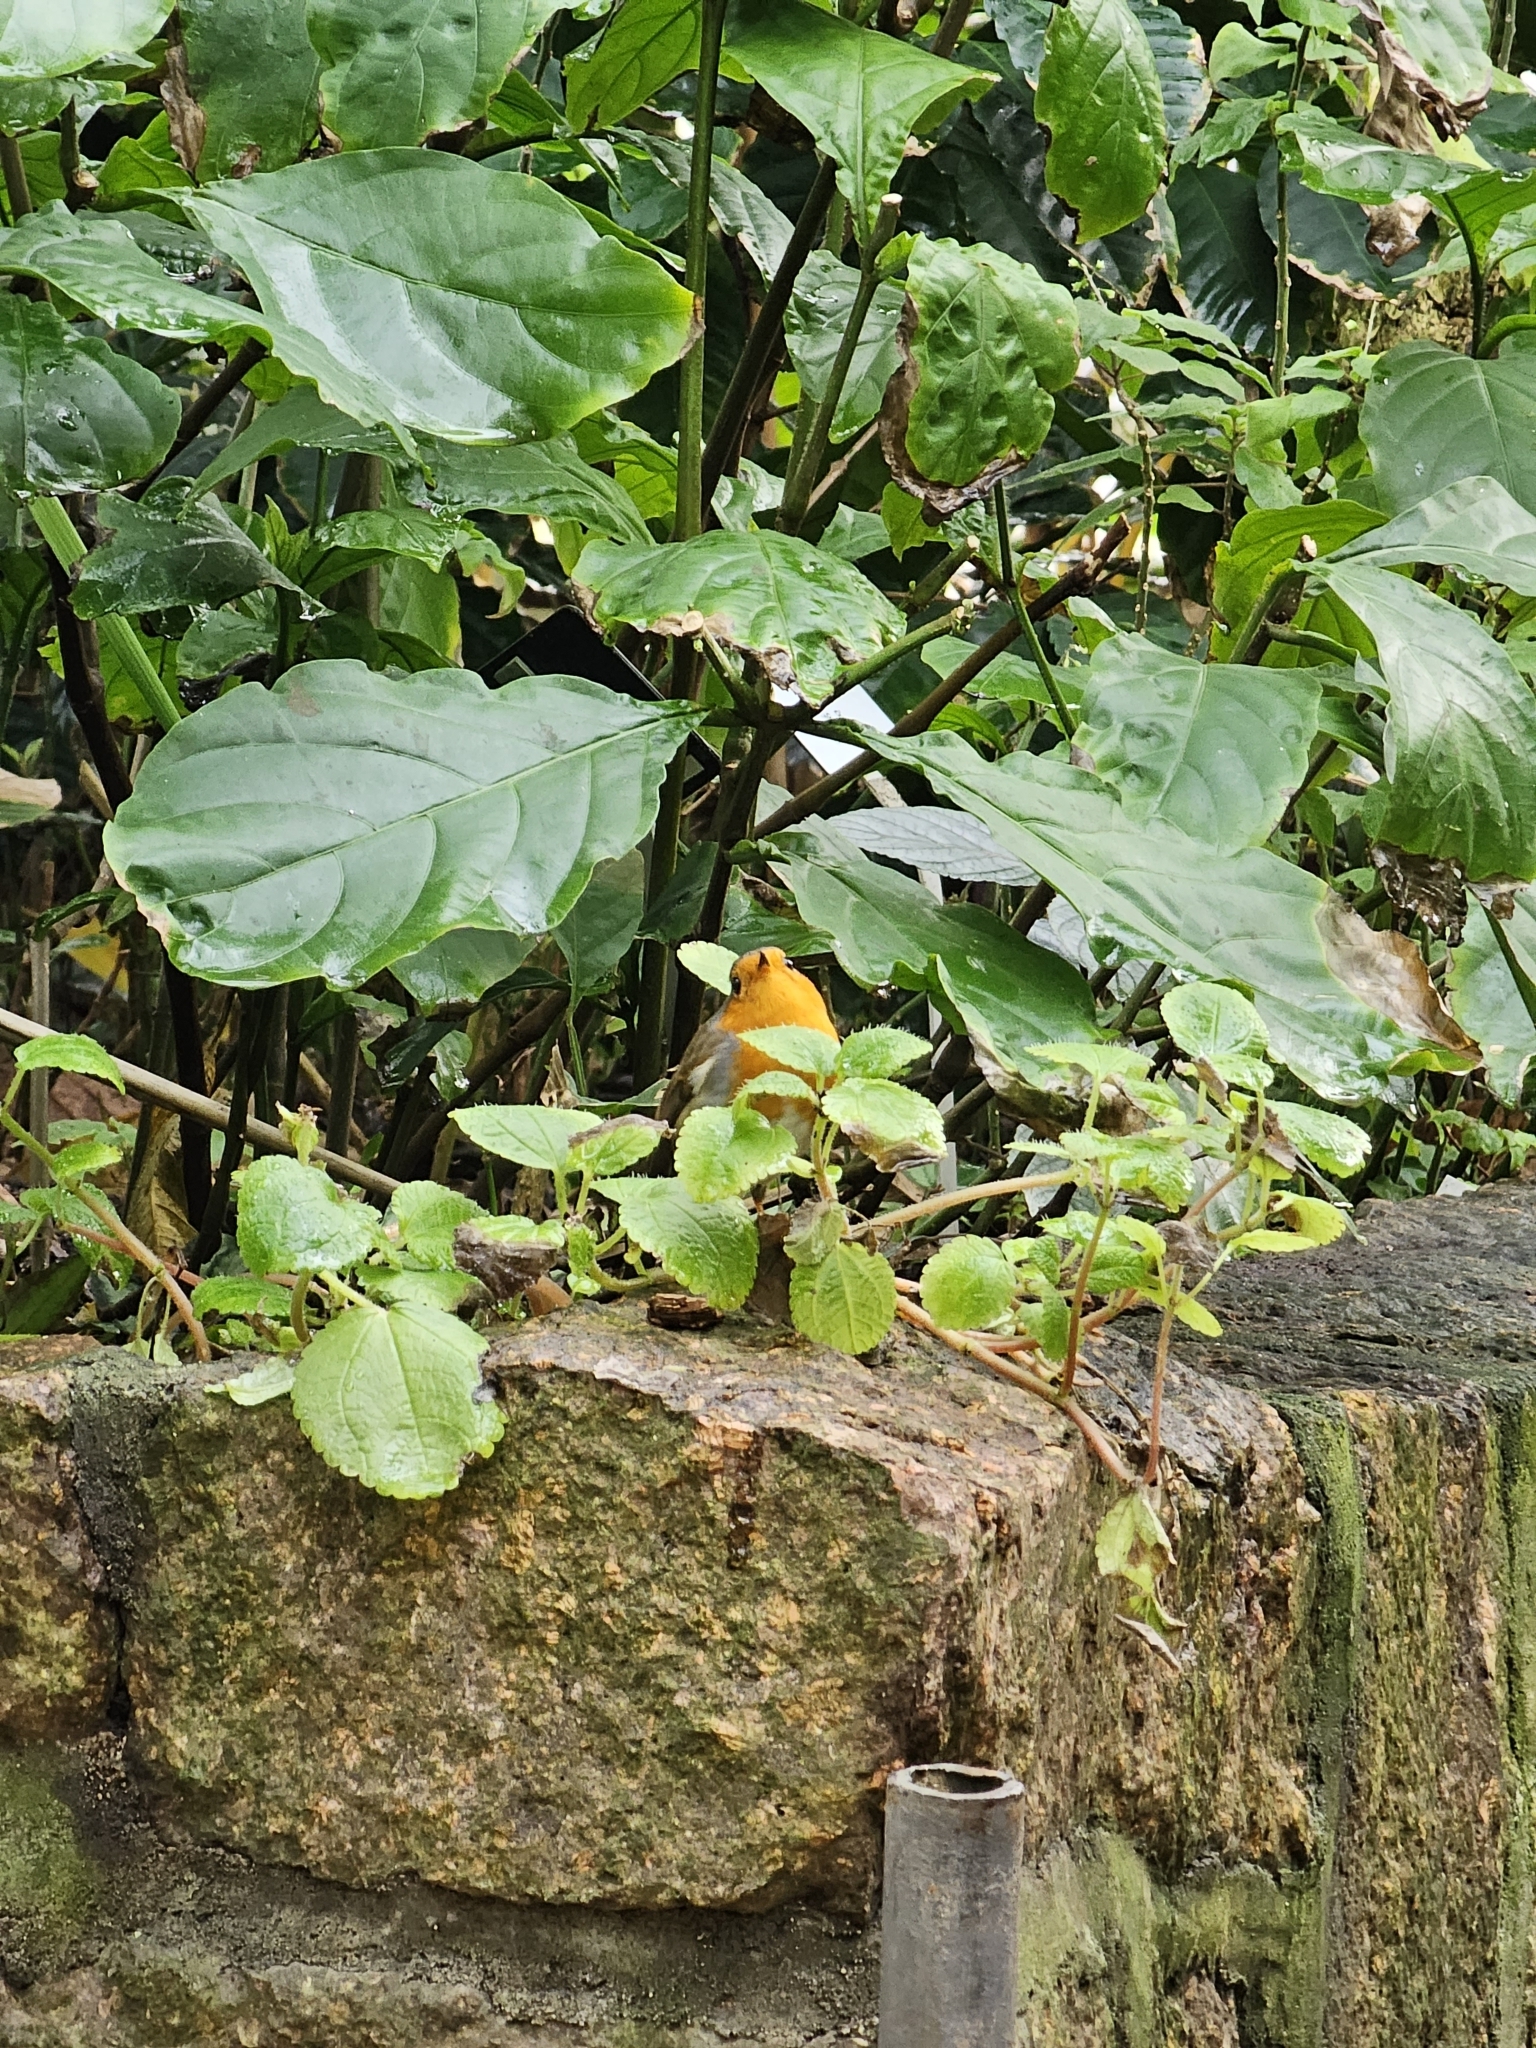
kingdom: Animalia
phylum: Chordata
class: Aves
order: Passeriformes
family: Muscicapidae
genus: Erithacus
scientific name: Erithacus rubecula
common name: European robin
